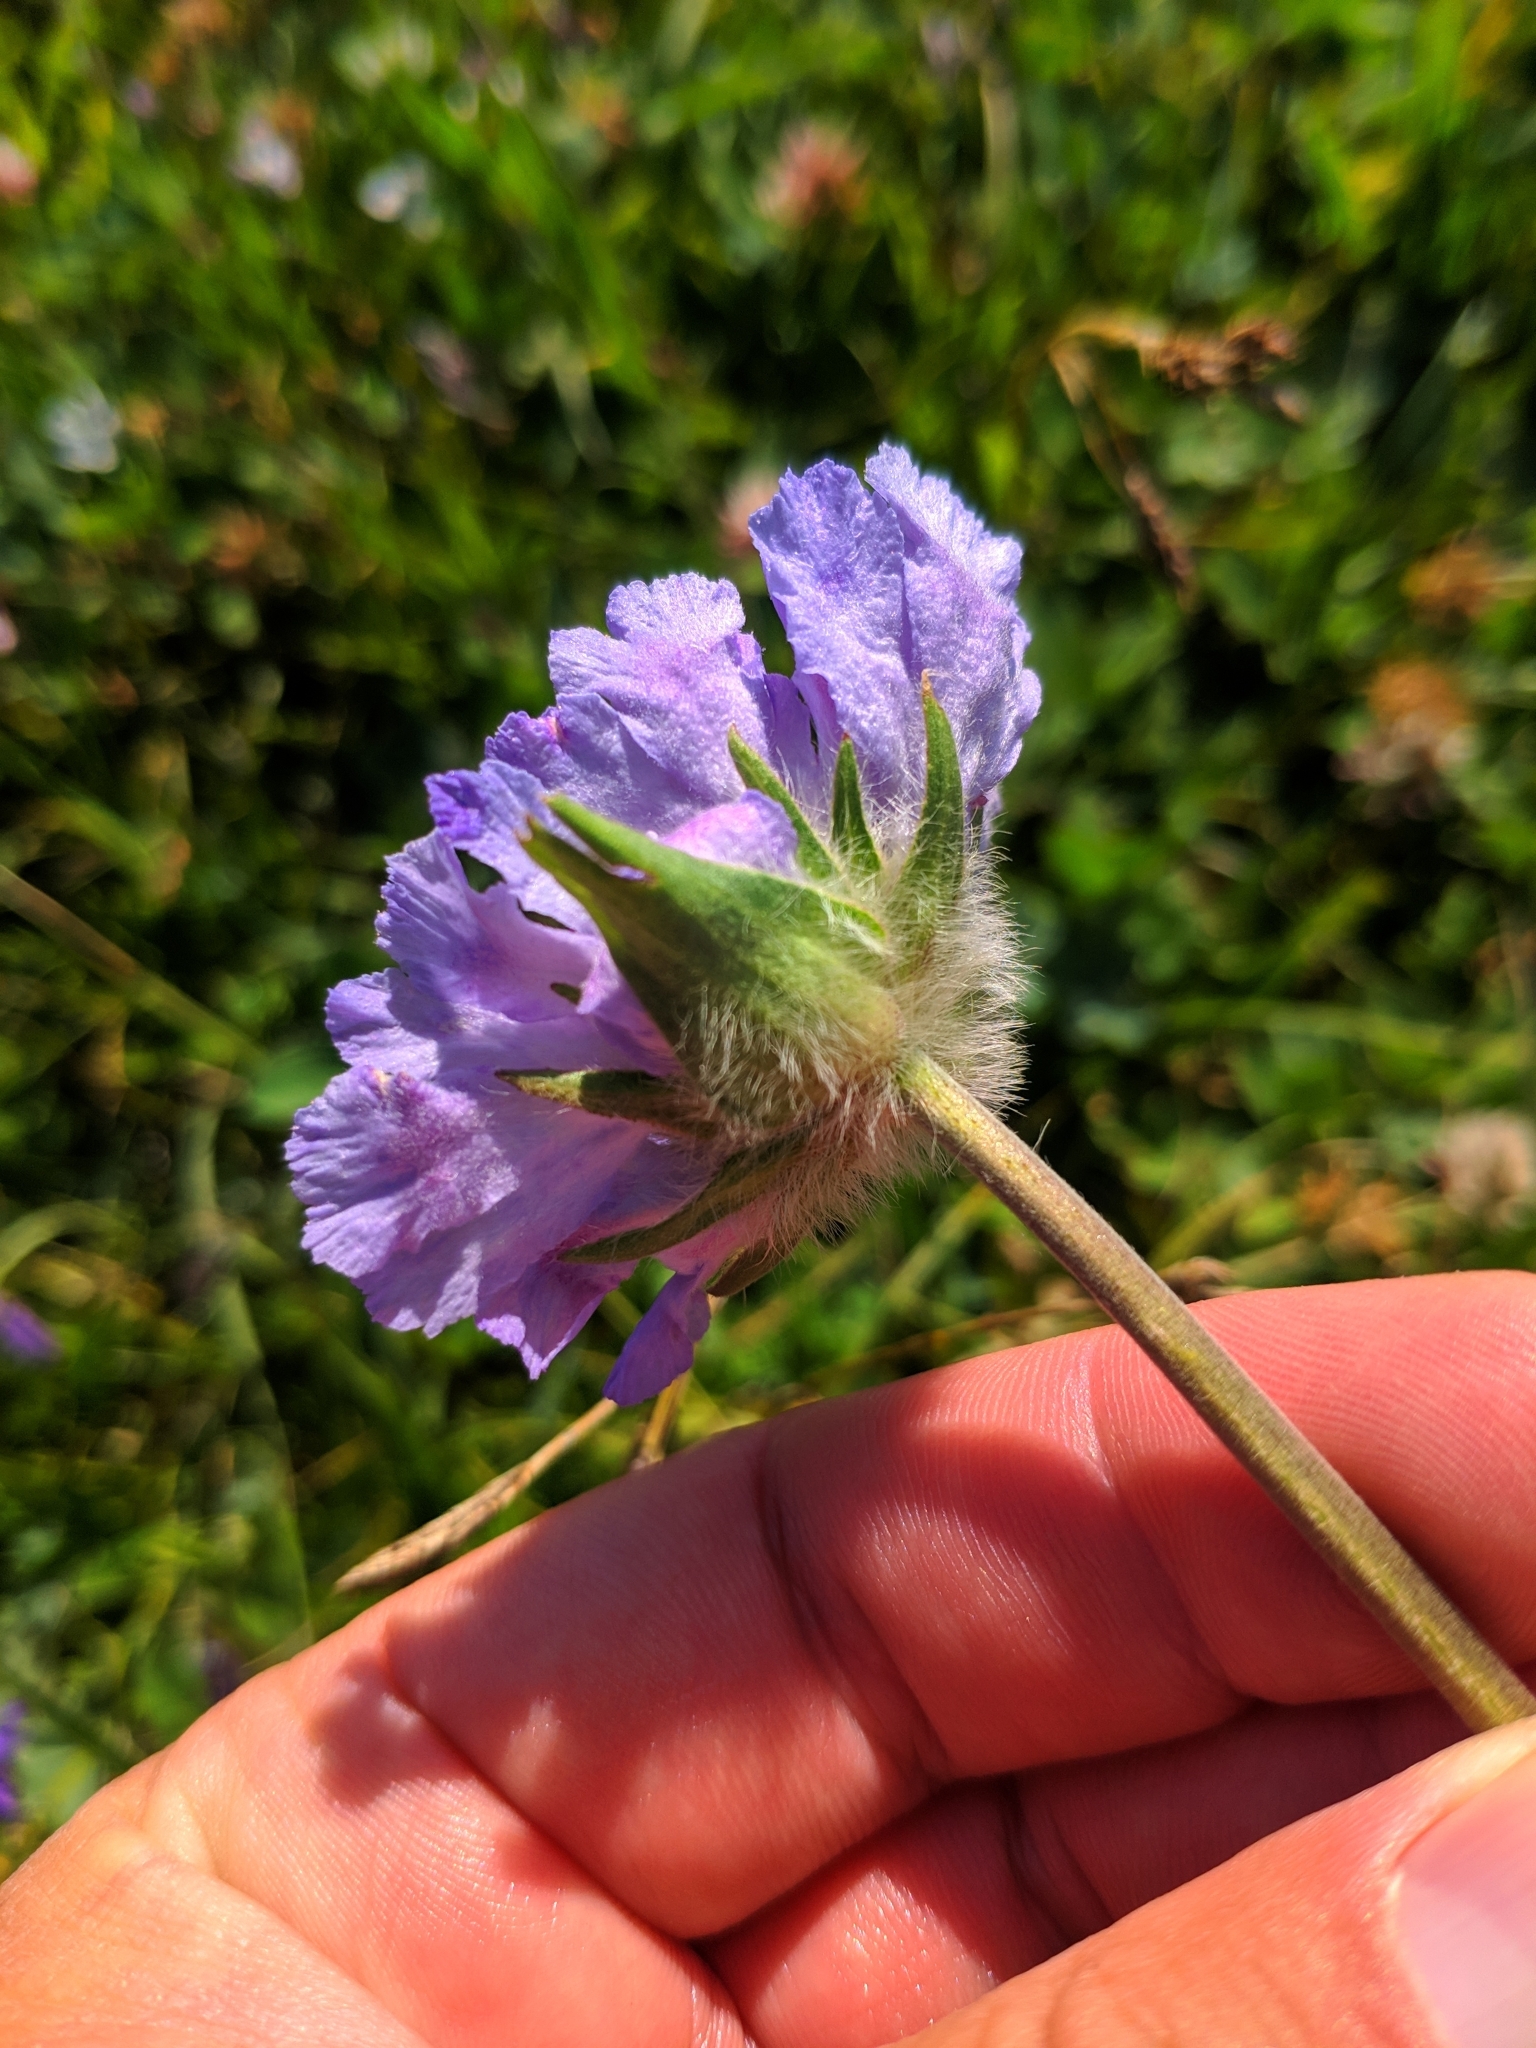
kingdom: Plantae
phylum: Tracheophyta
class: Magnoliopsida
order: Dipsacales
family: Caprifoliaceae
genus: Lomelosia
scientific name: Lomelosia caucasica
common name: Pincushion-flower
